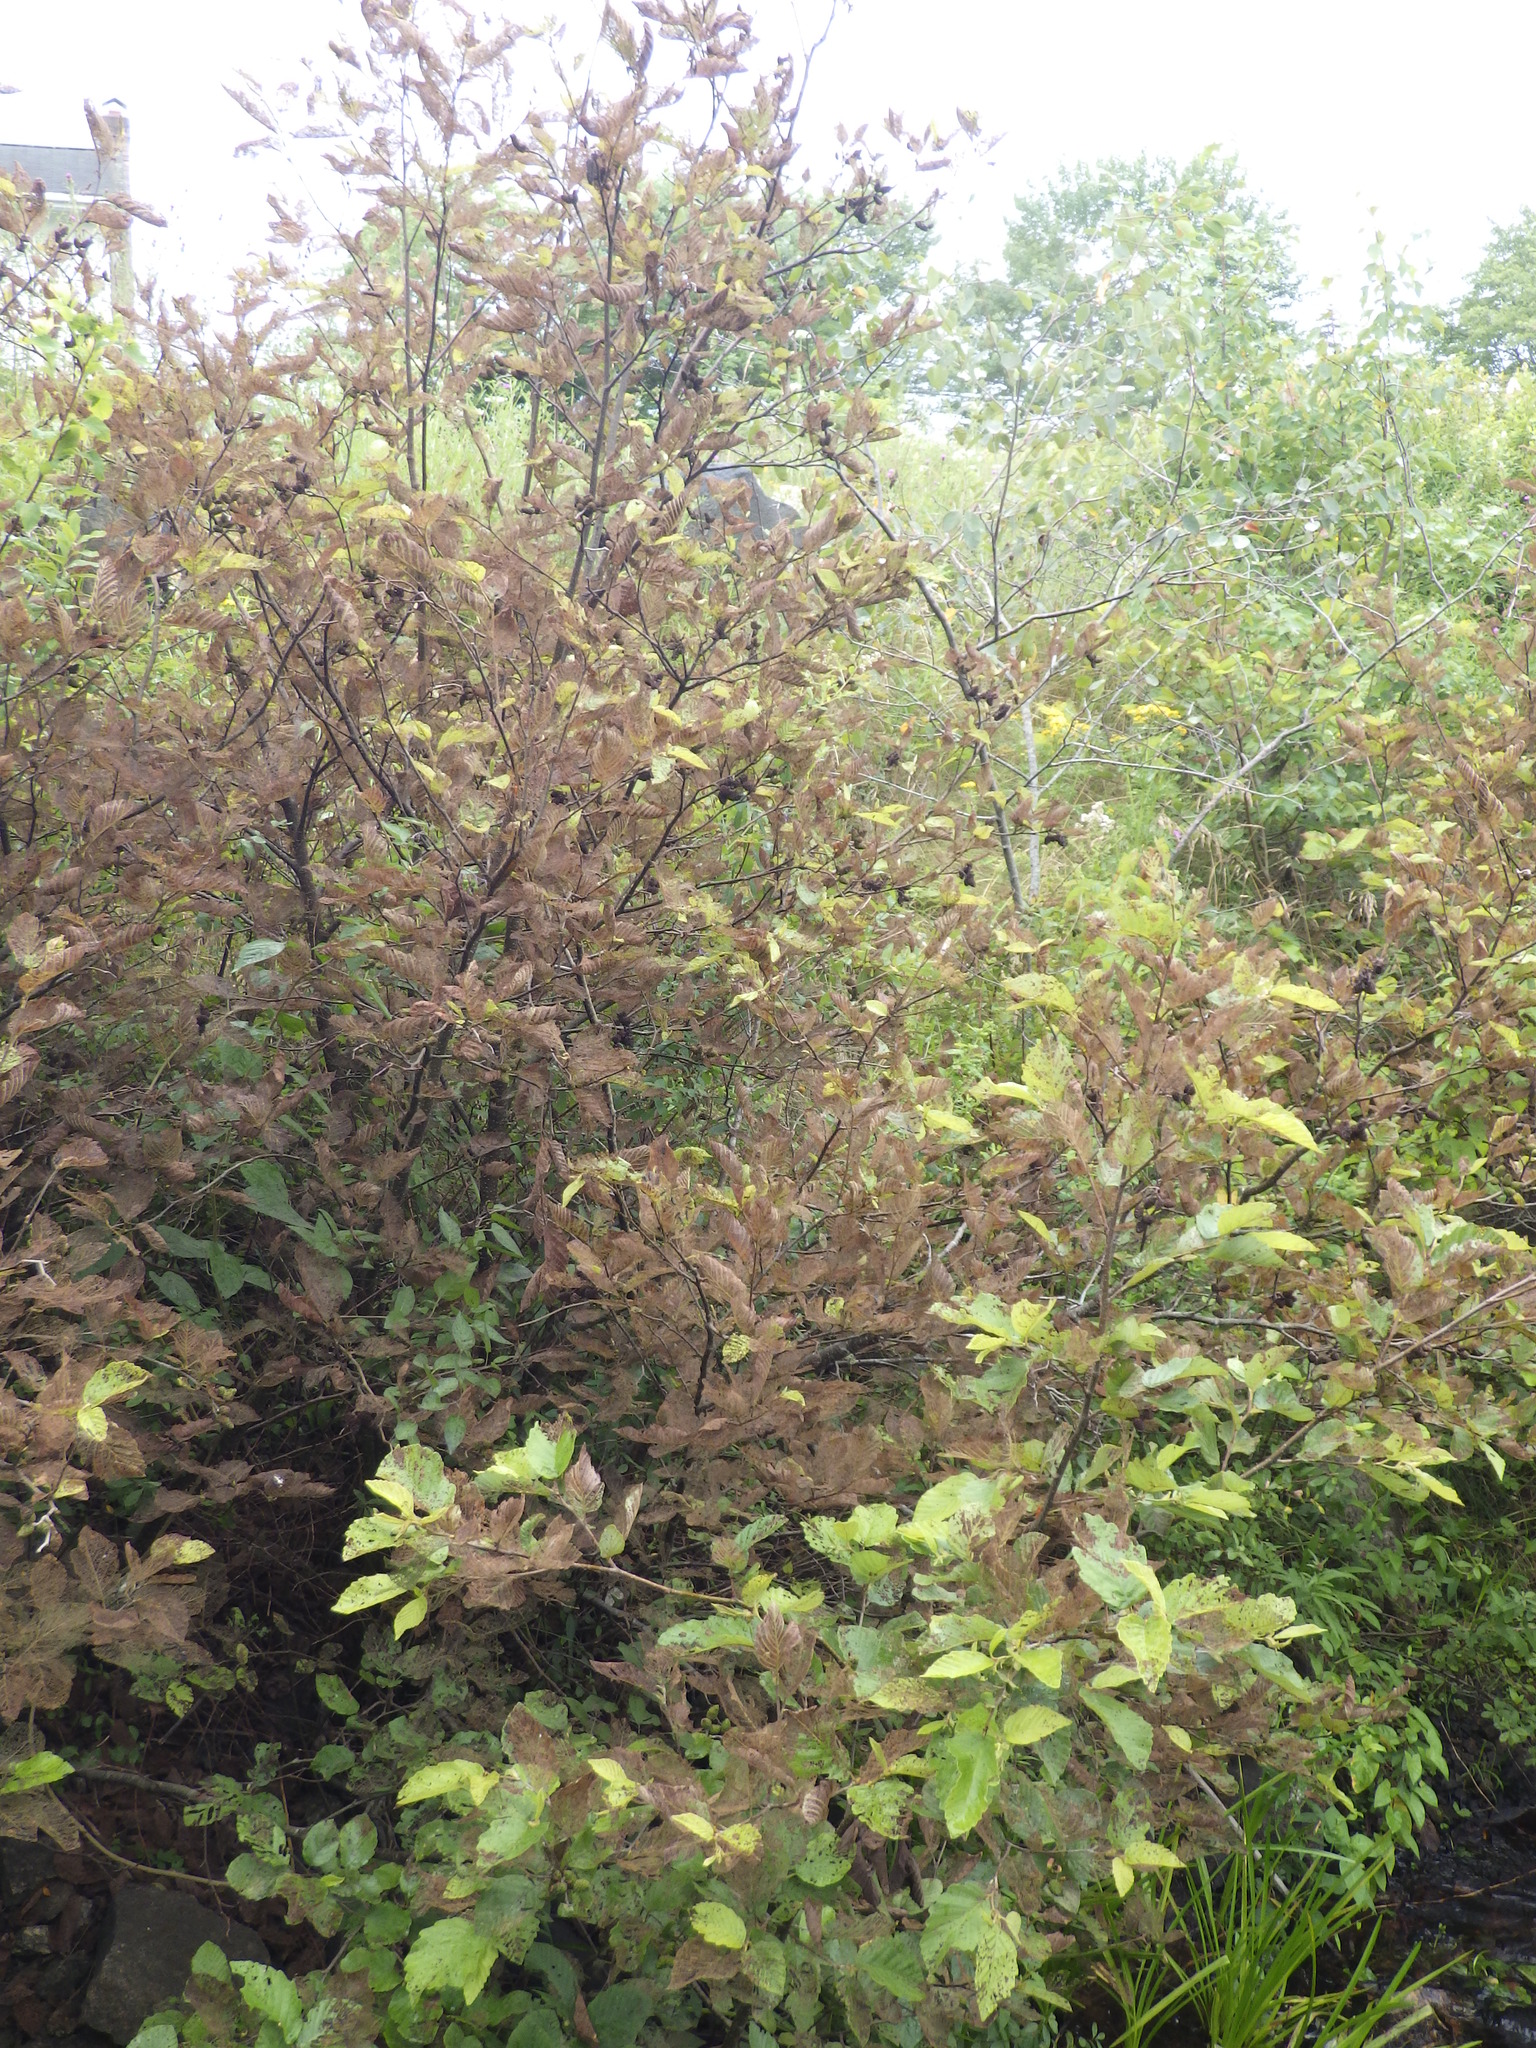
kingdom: Animalia
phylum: Arthropoda
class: Insecta
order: Coleoptera
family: Chrysomelidae
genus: Altica
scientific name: Altica ambiens
